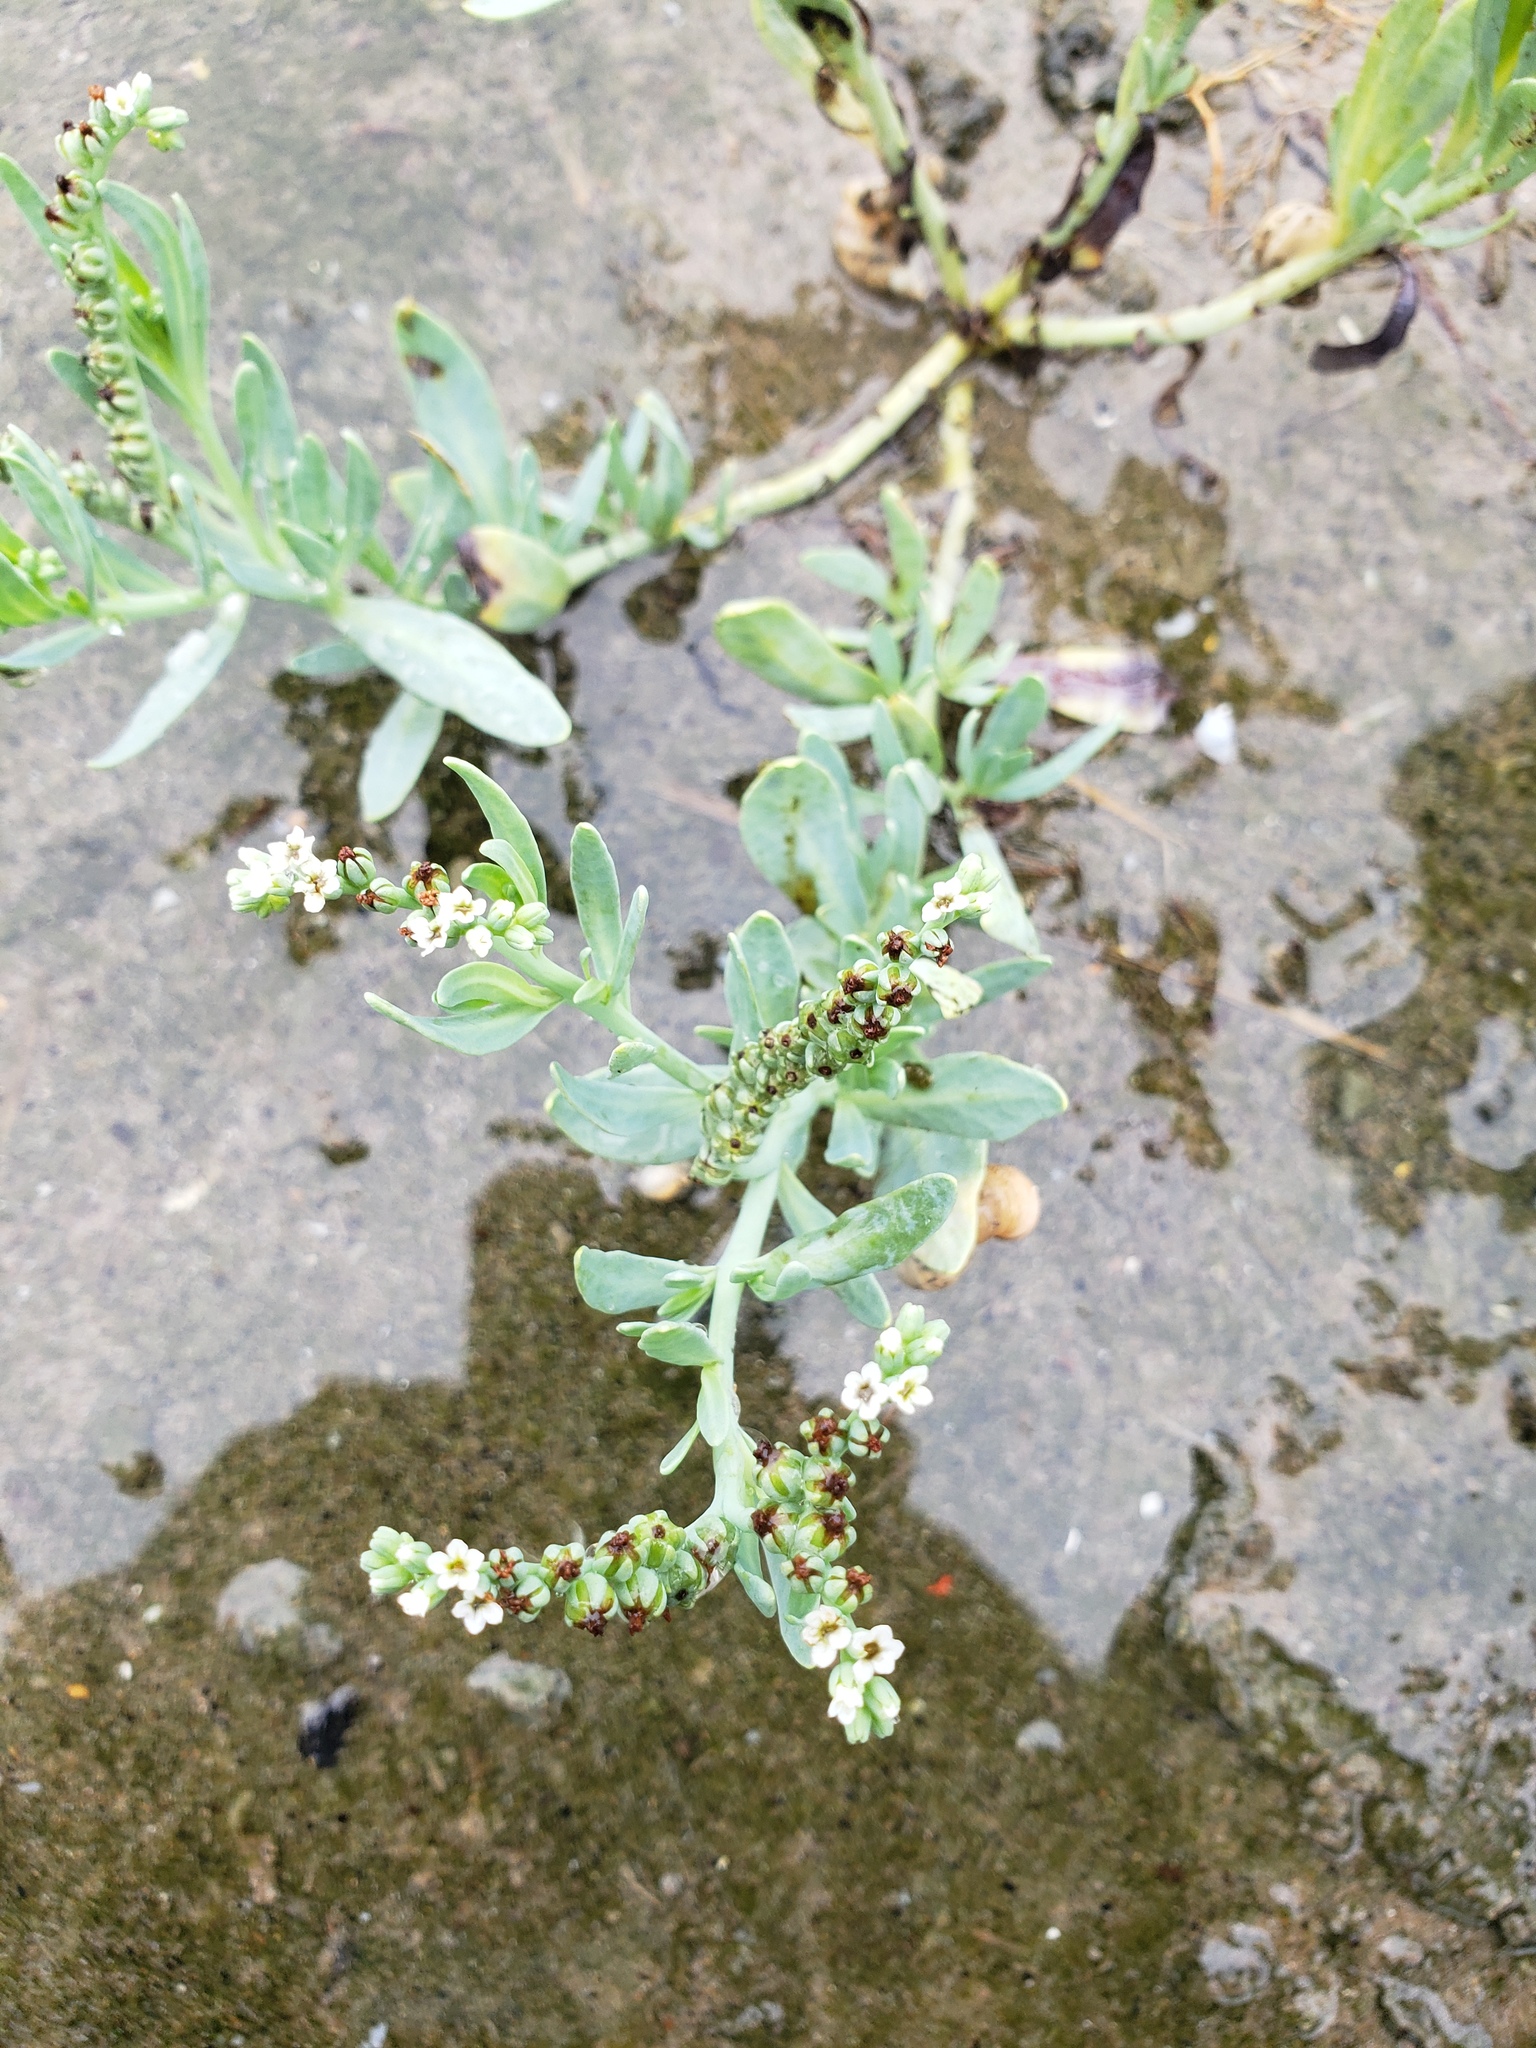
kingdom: Plantae
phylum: Tracheophyta
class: Magnoliopsida
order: Boraginales
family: Heliotropiaceae
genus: Heliotropium
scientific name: Heliotropium curassavicum
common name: Seaside heliotrope
